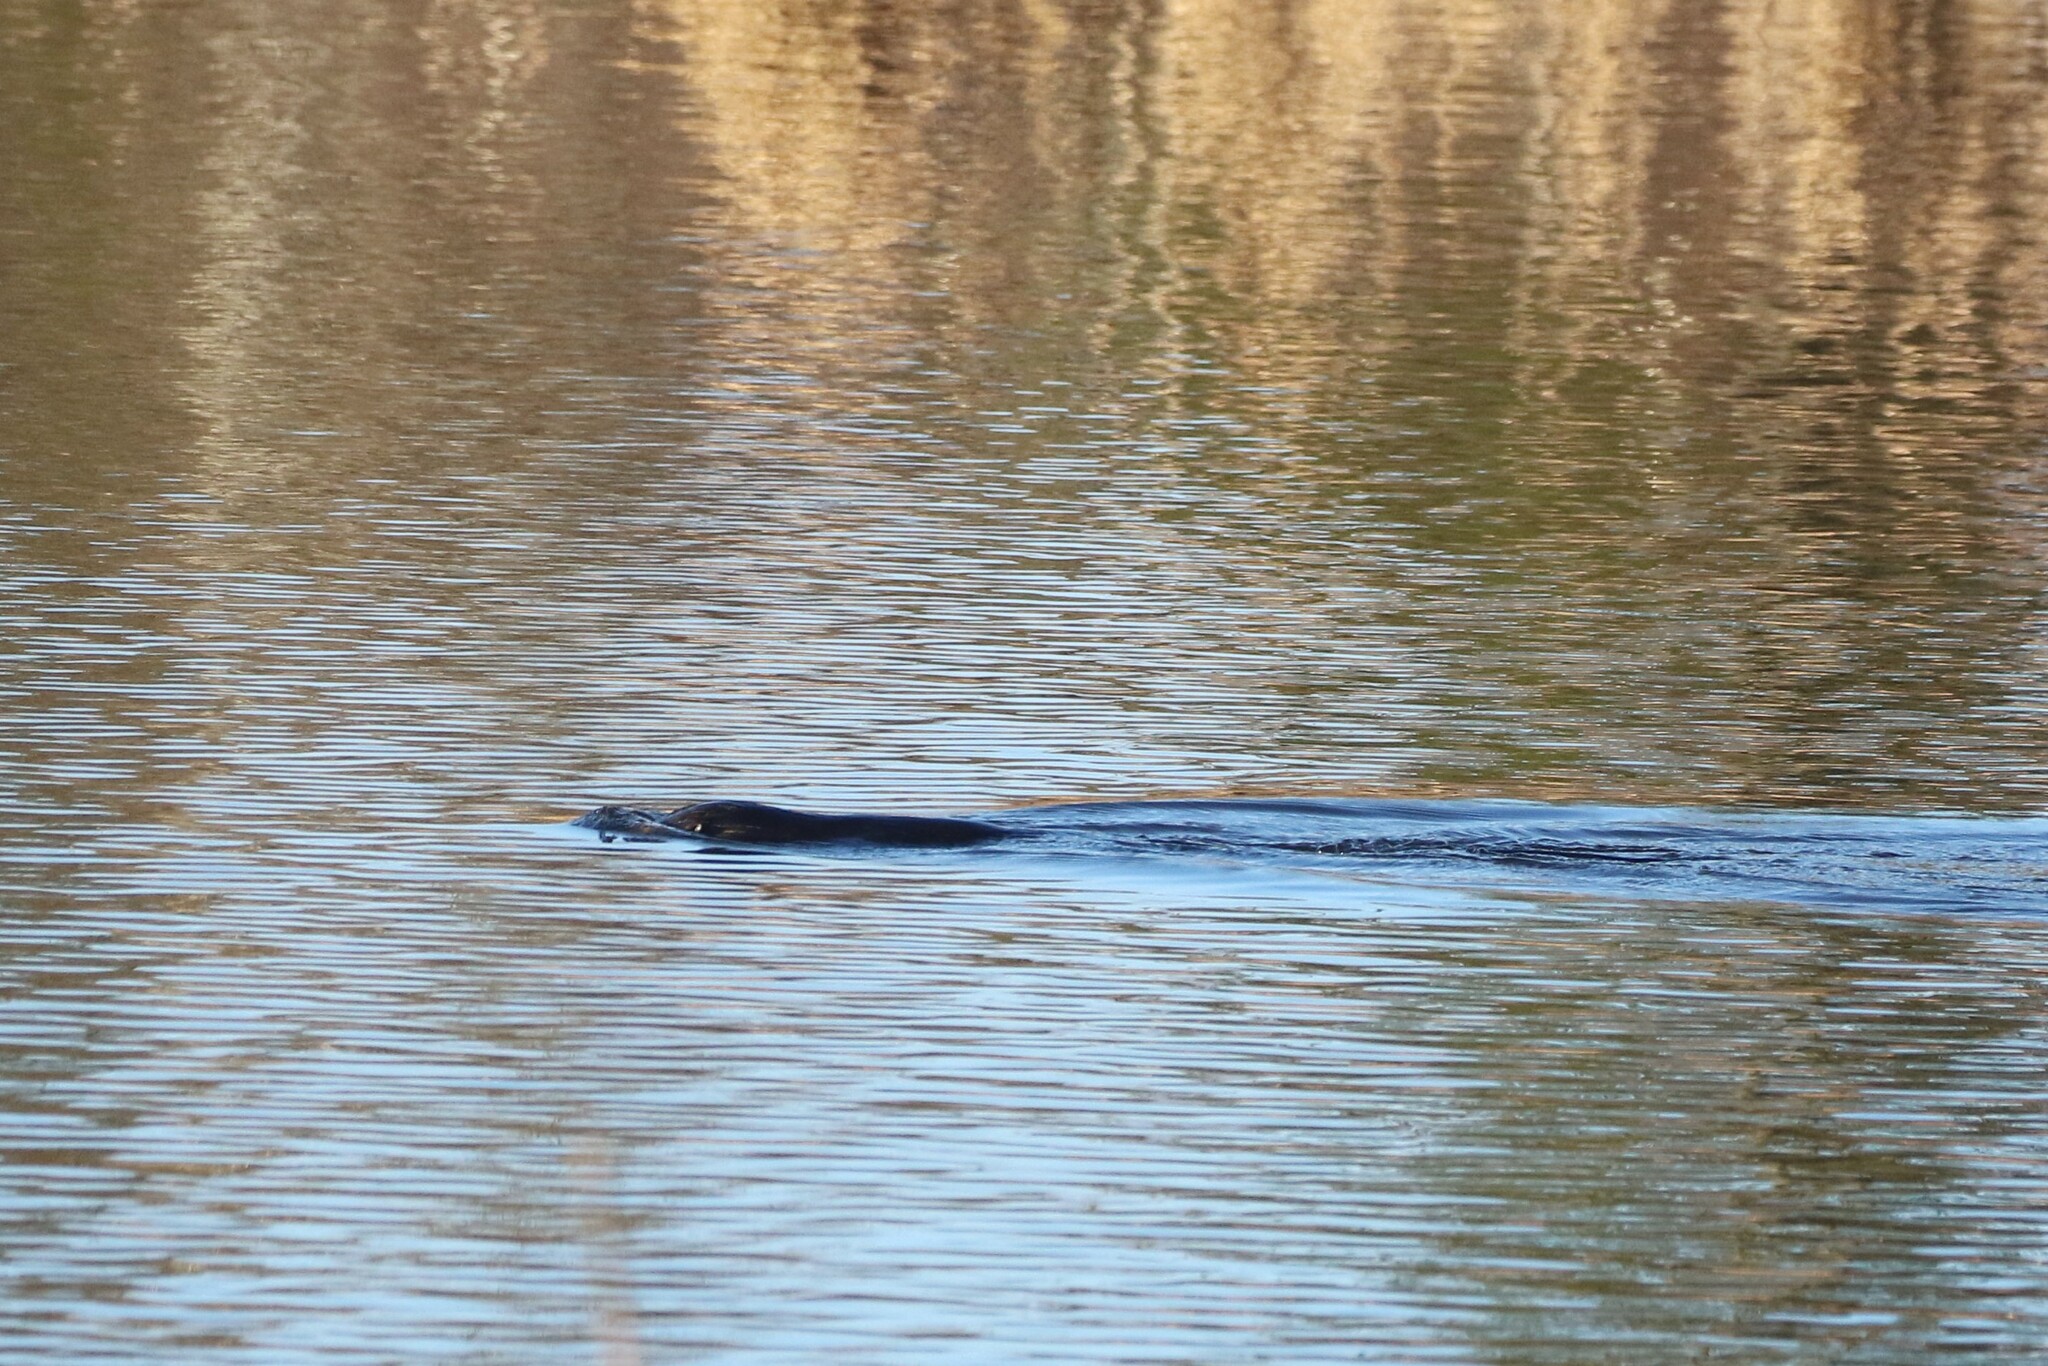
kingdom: Animalia
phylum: Chordata
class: Mammalia
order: Carnivora
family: Mustelidae
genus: Lontra
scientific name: Lontra canadensis
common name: North american river otter
